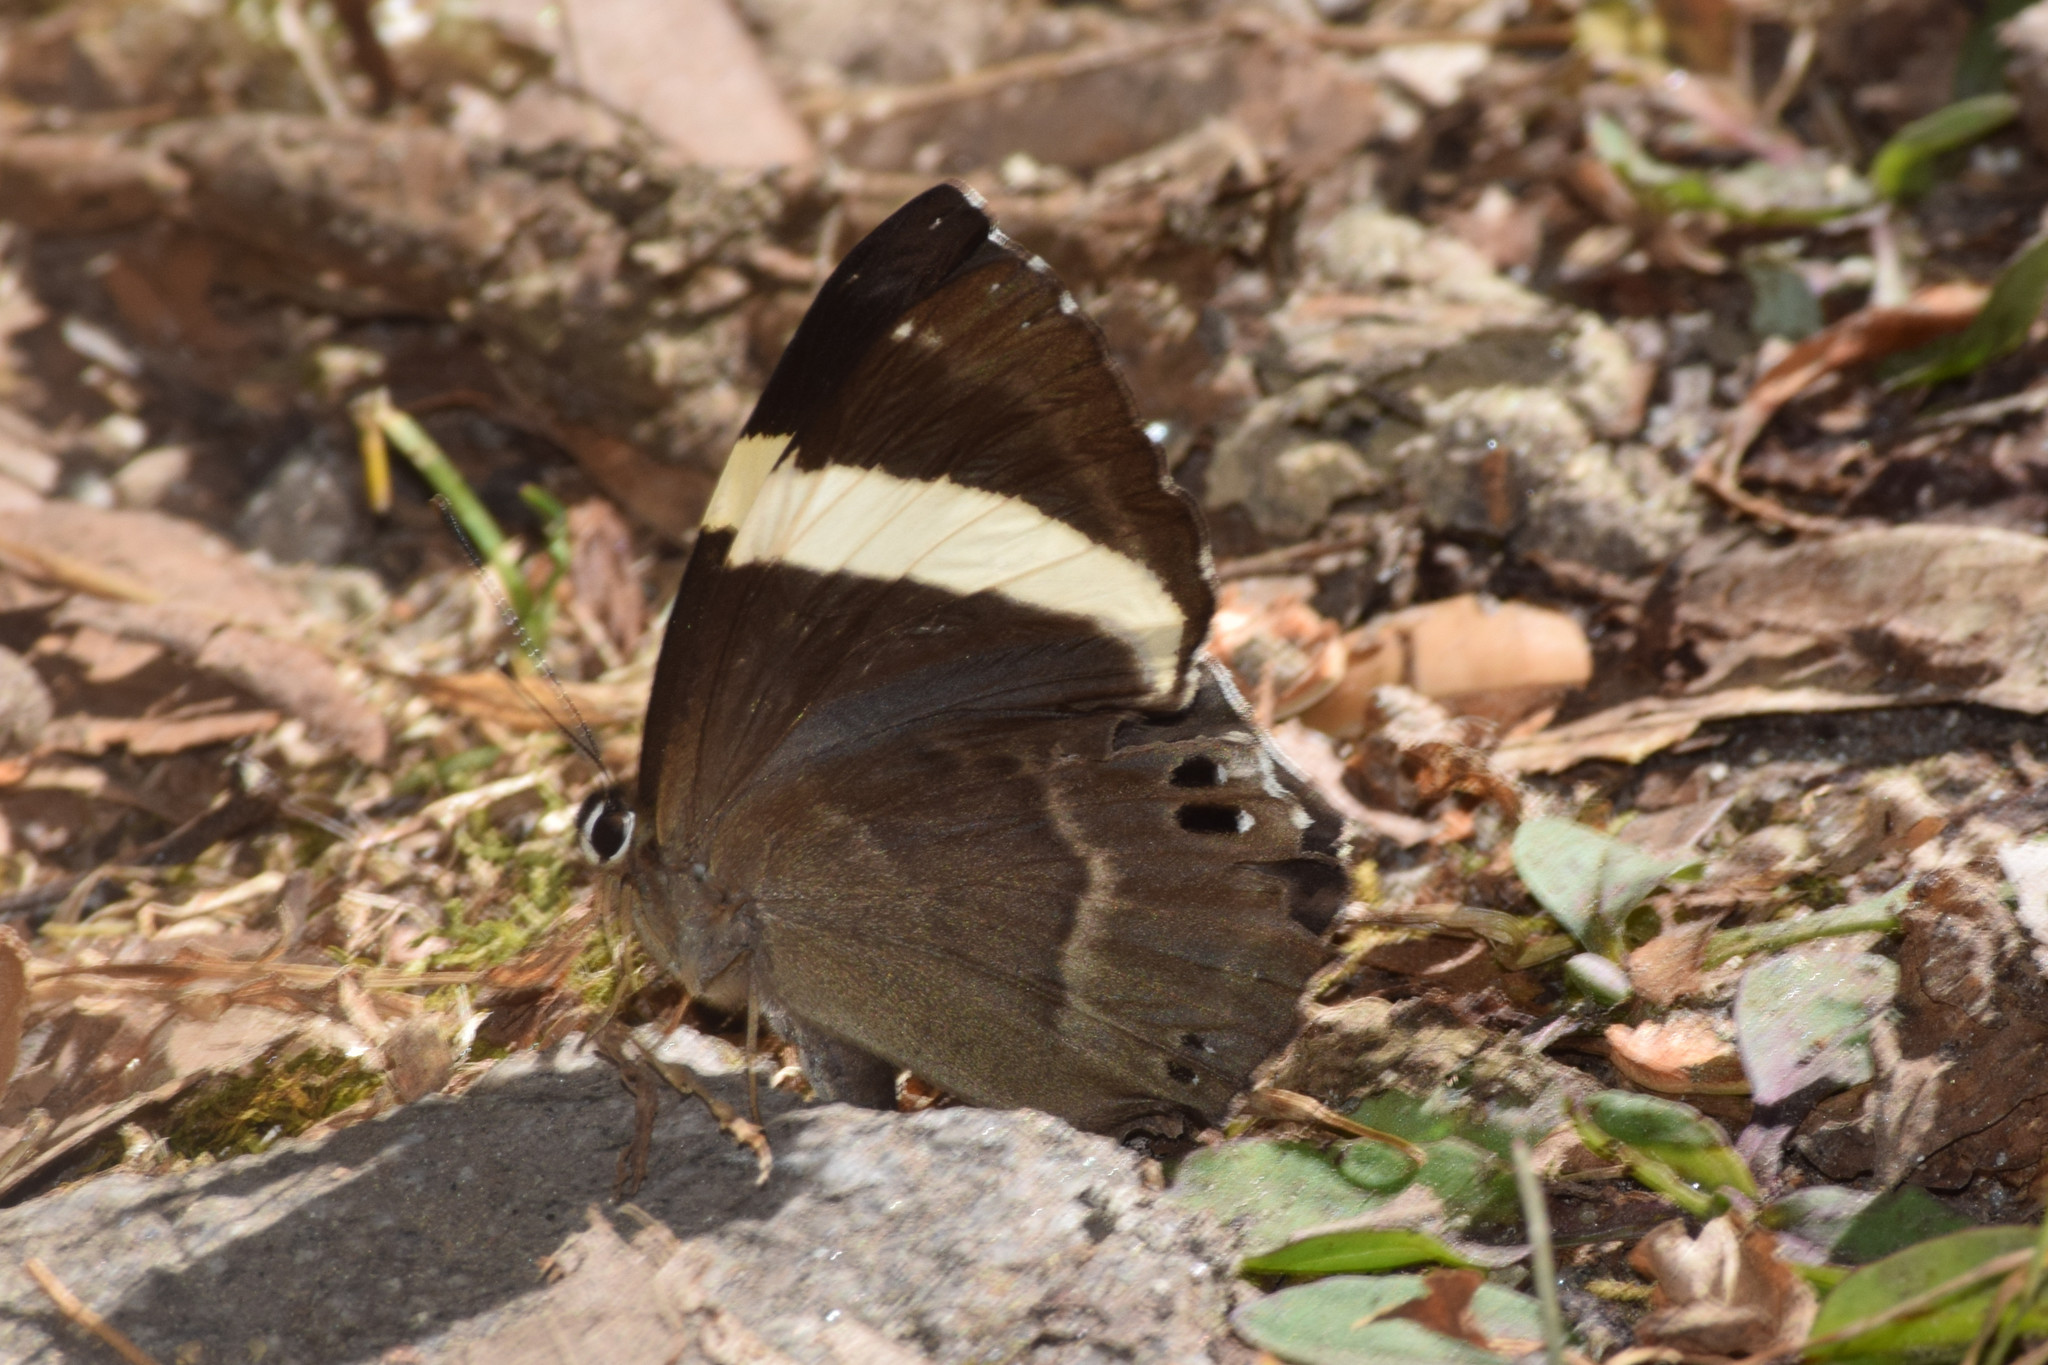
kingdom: Animalia
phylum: Arthropoda
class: Insecta
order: Lepidoptera
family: Lycaenidae
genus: Abisara
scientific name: Abisara fylla
